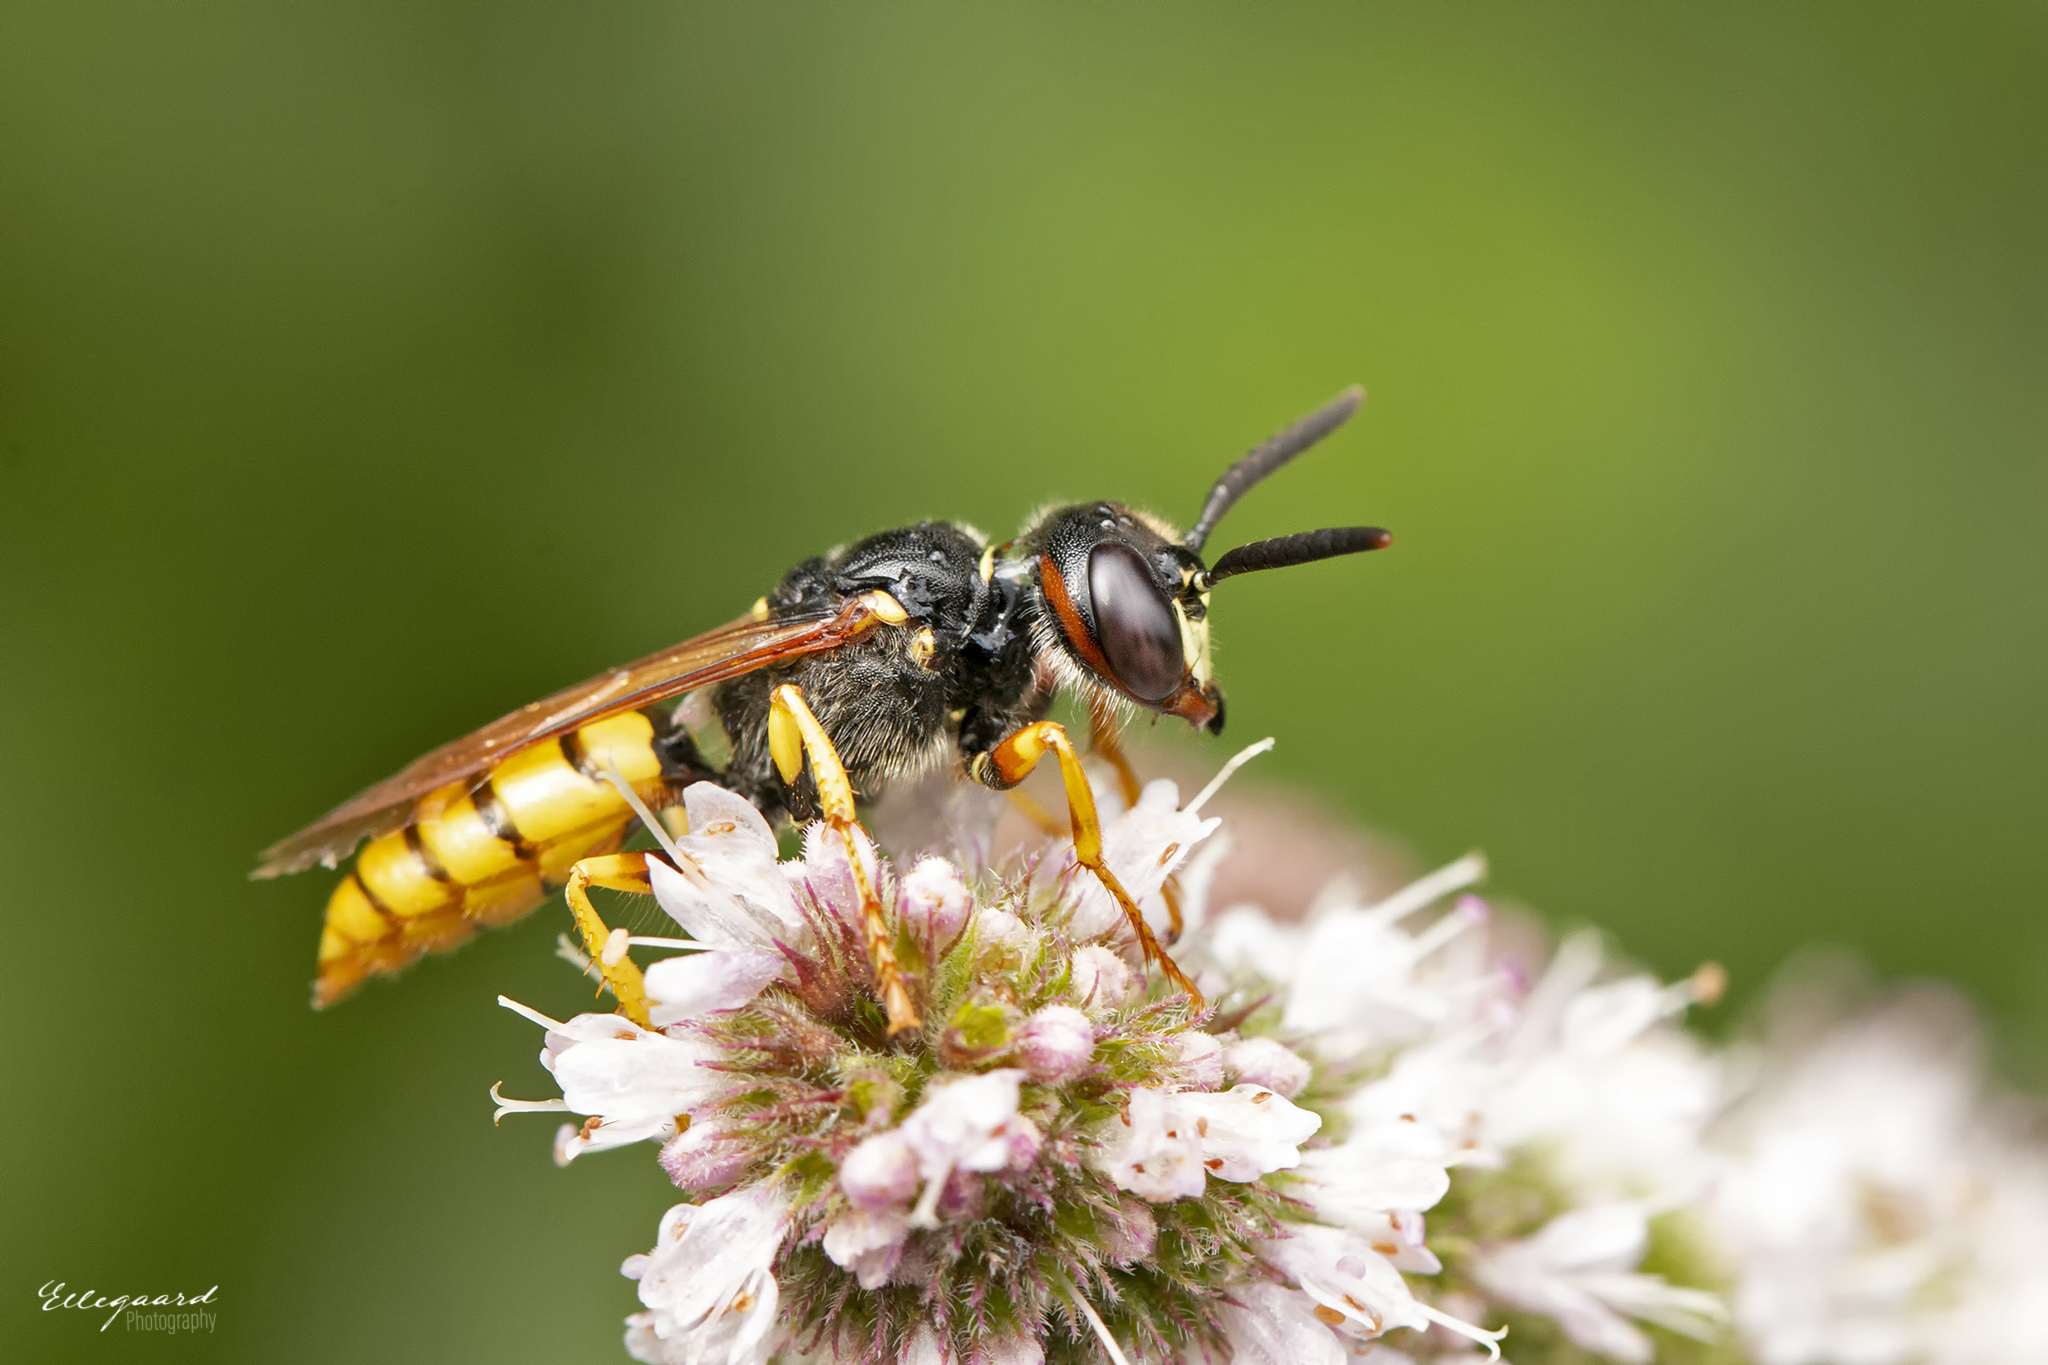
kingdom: Animalia
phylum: Arthropoda
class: Insecta
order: Hymenoptera
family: Crabronidae
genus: Philanthus
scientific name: Philanthus triangulum
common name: Bee wolf
